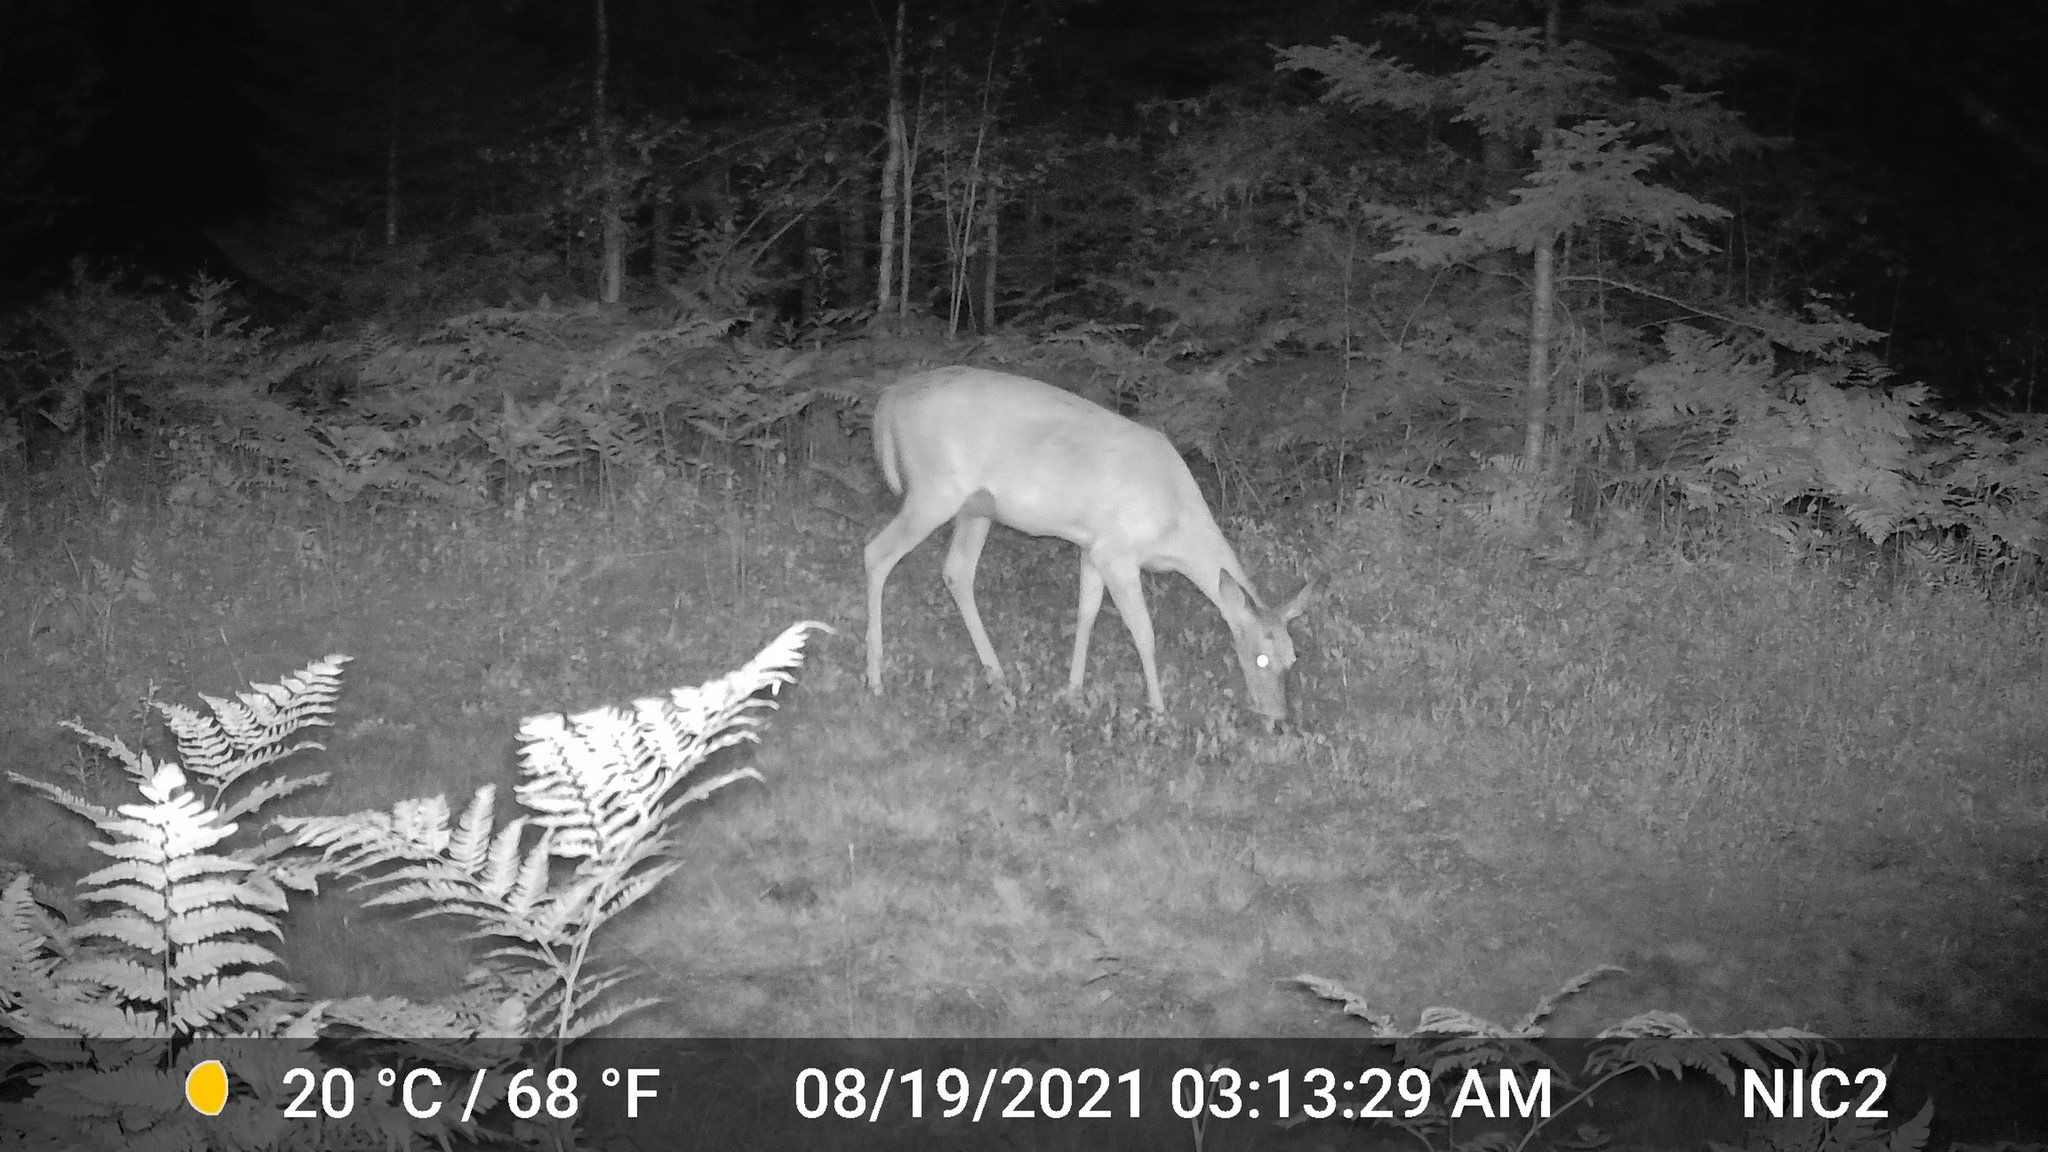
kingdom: Animalia
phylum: Chordata
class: Mammalia
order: Artiodactyla
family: Cervidae
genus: Odocoileus
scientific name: Odocoileus virginianus
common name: White-tailed deer
